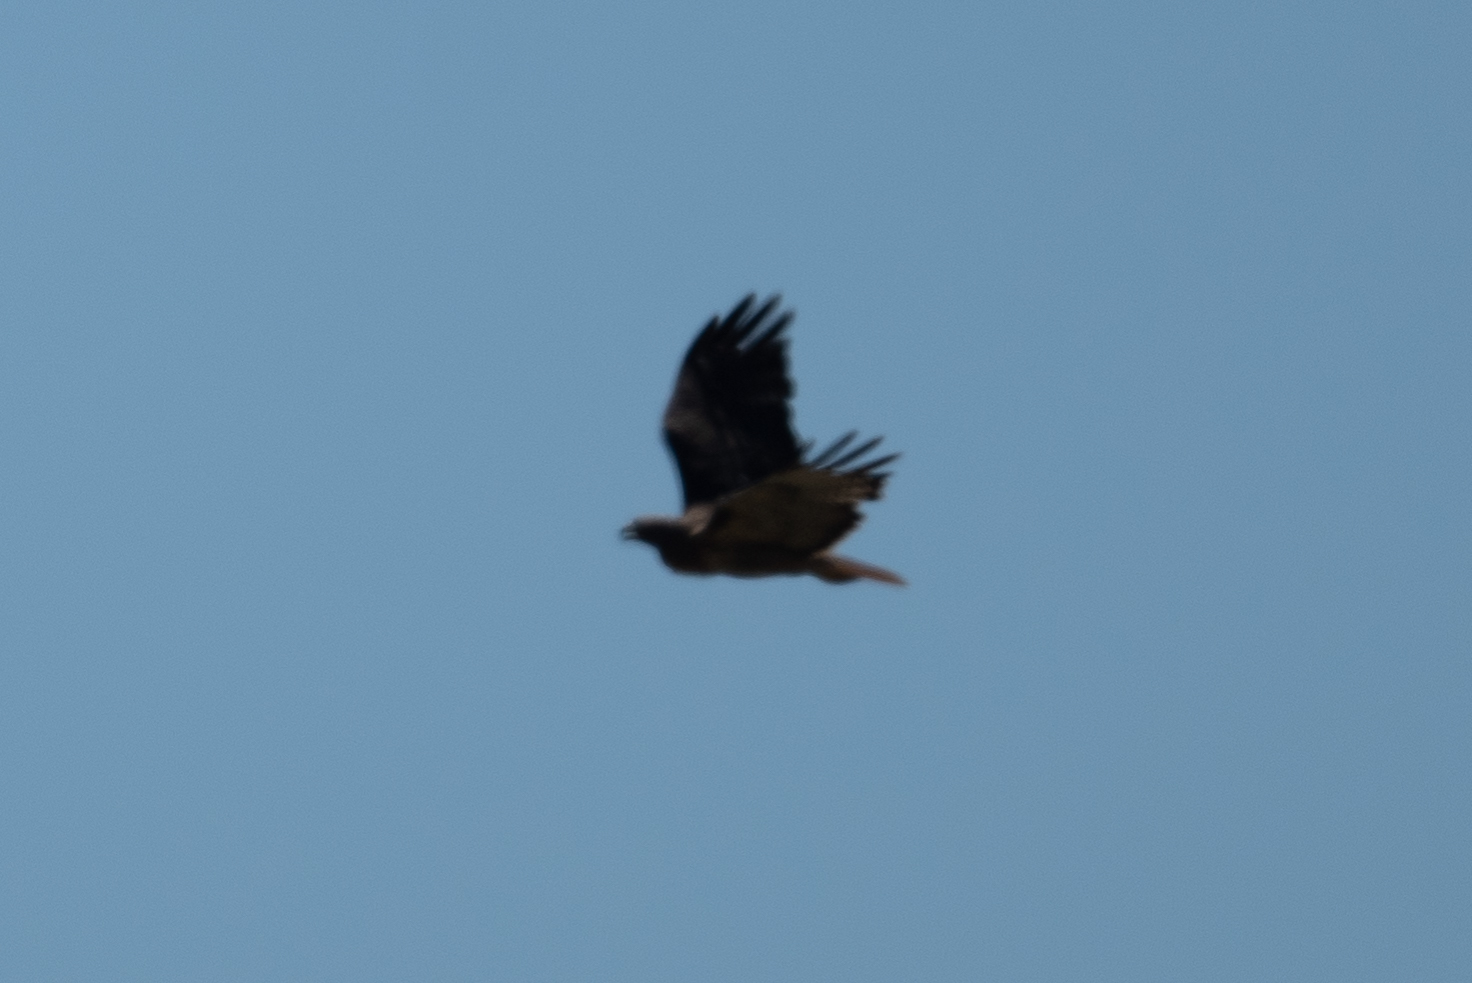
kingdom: Animalia
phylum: Chordata
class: Aves
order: Accipitriformes
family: Accipitridae
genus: Buteo
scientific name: Buteo jamaicensis
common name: Red-tailed hawk
